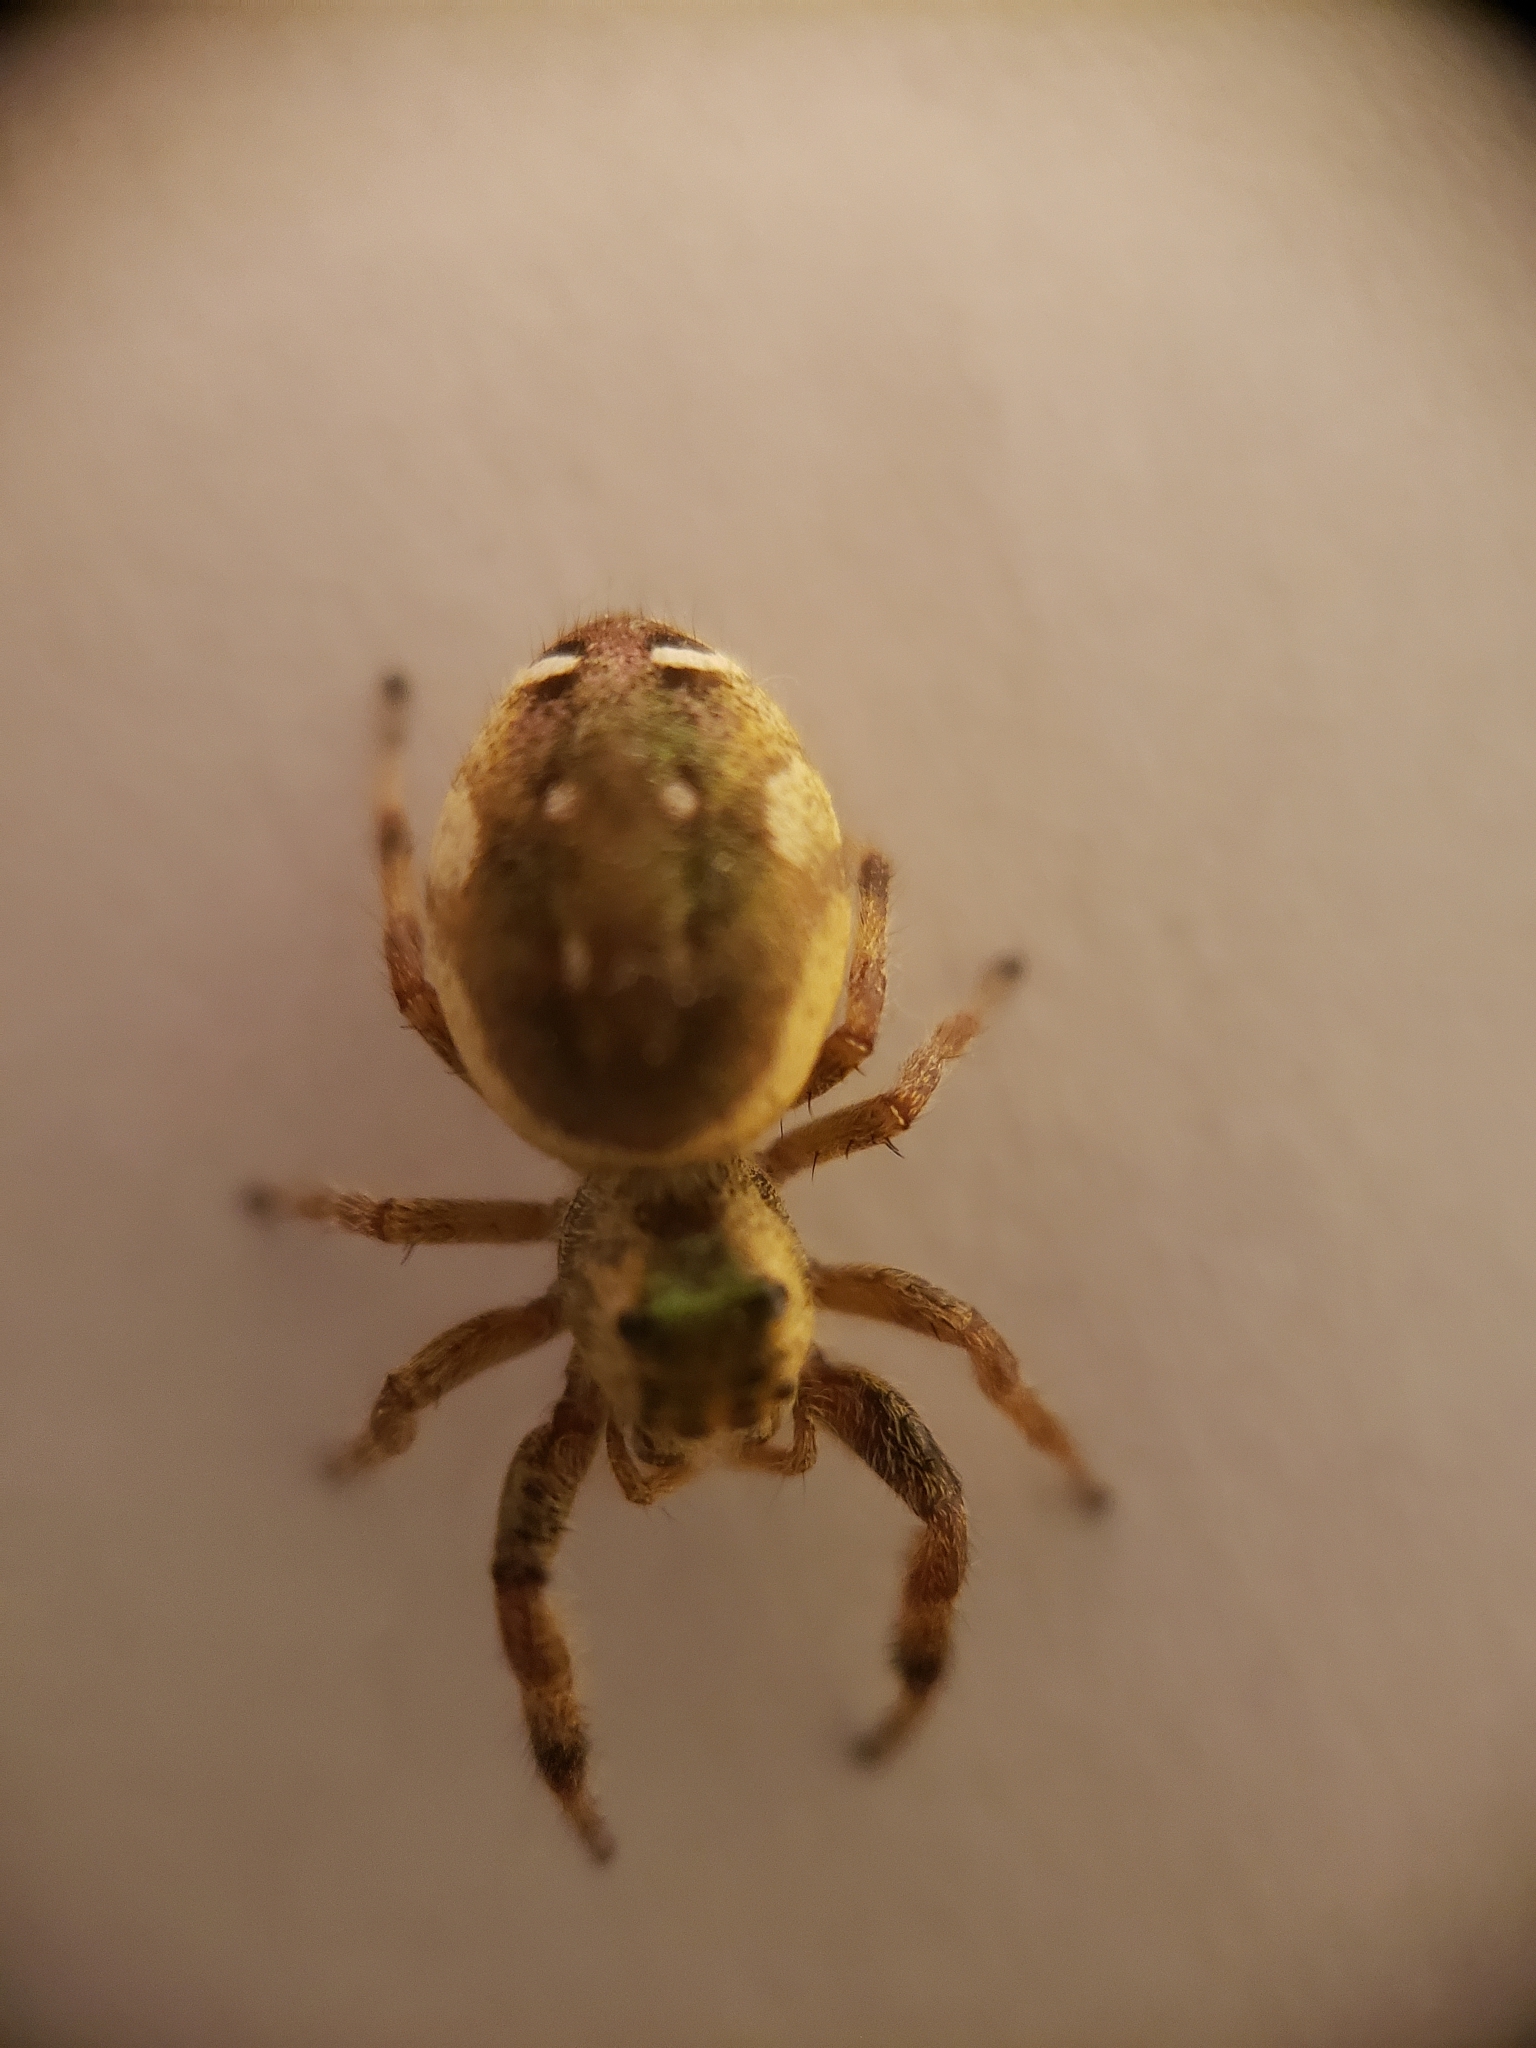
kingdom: Animalia
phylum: Arthropoda
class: Arachnida
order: Araneae
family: Salticidae
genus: Paraphidippus
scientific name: Paraphidippus aurantius
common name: Jumping spiders
